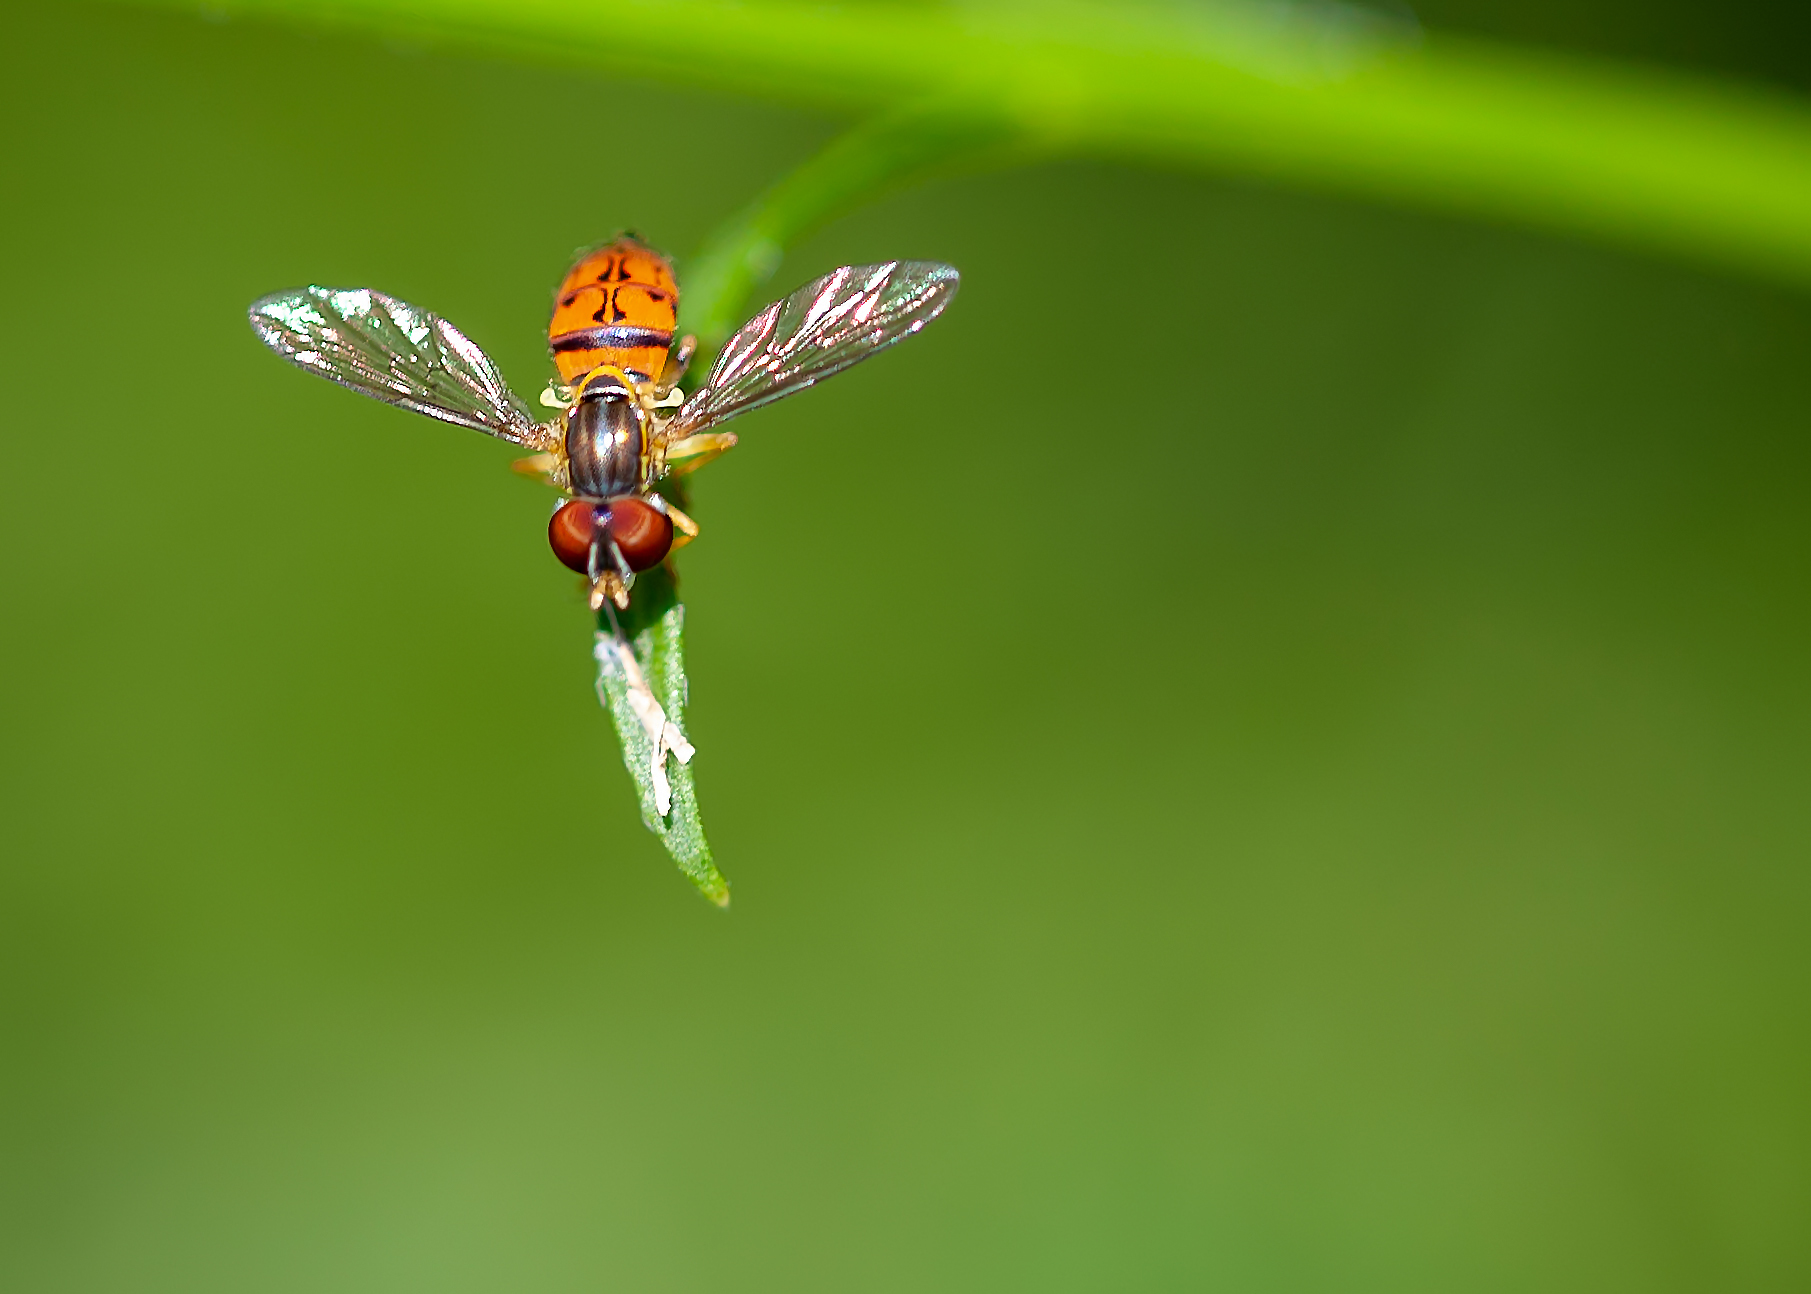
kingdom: Animalia
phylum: Arthropoda
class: Insecta
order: Diptera
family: Syrphidae
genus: Toxomerus
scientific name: Toxomerus boscii
